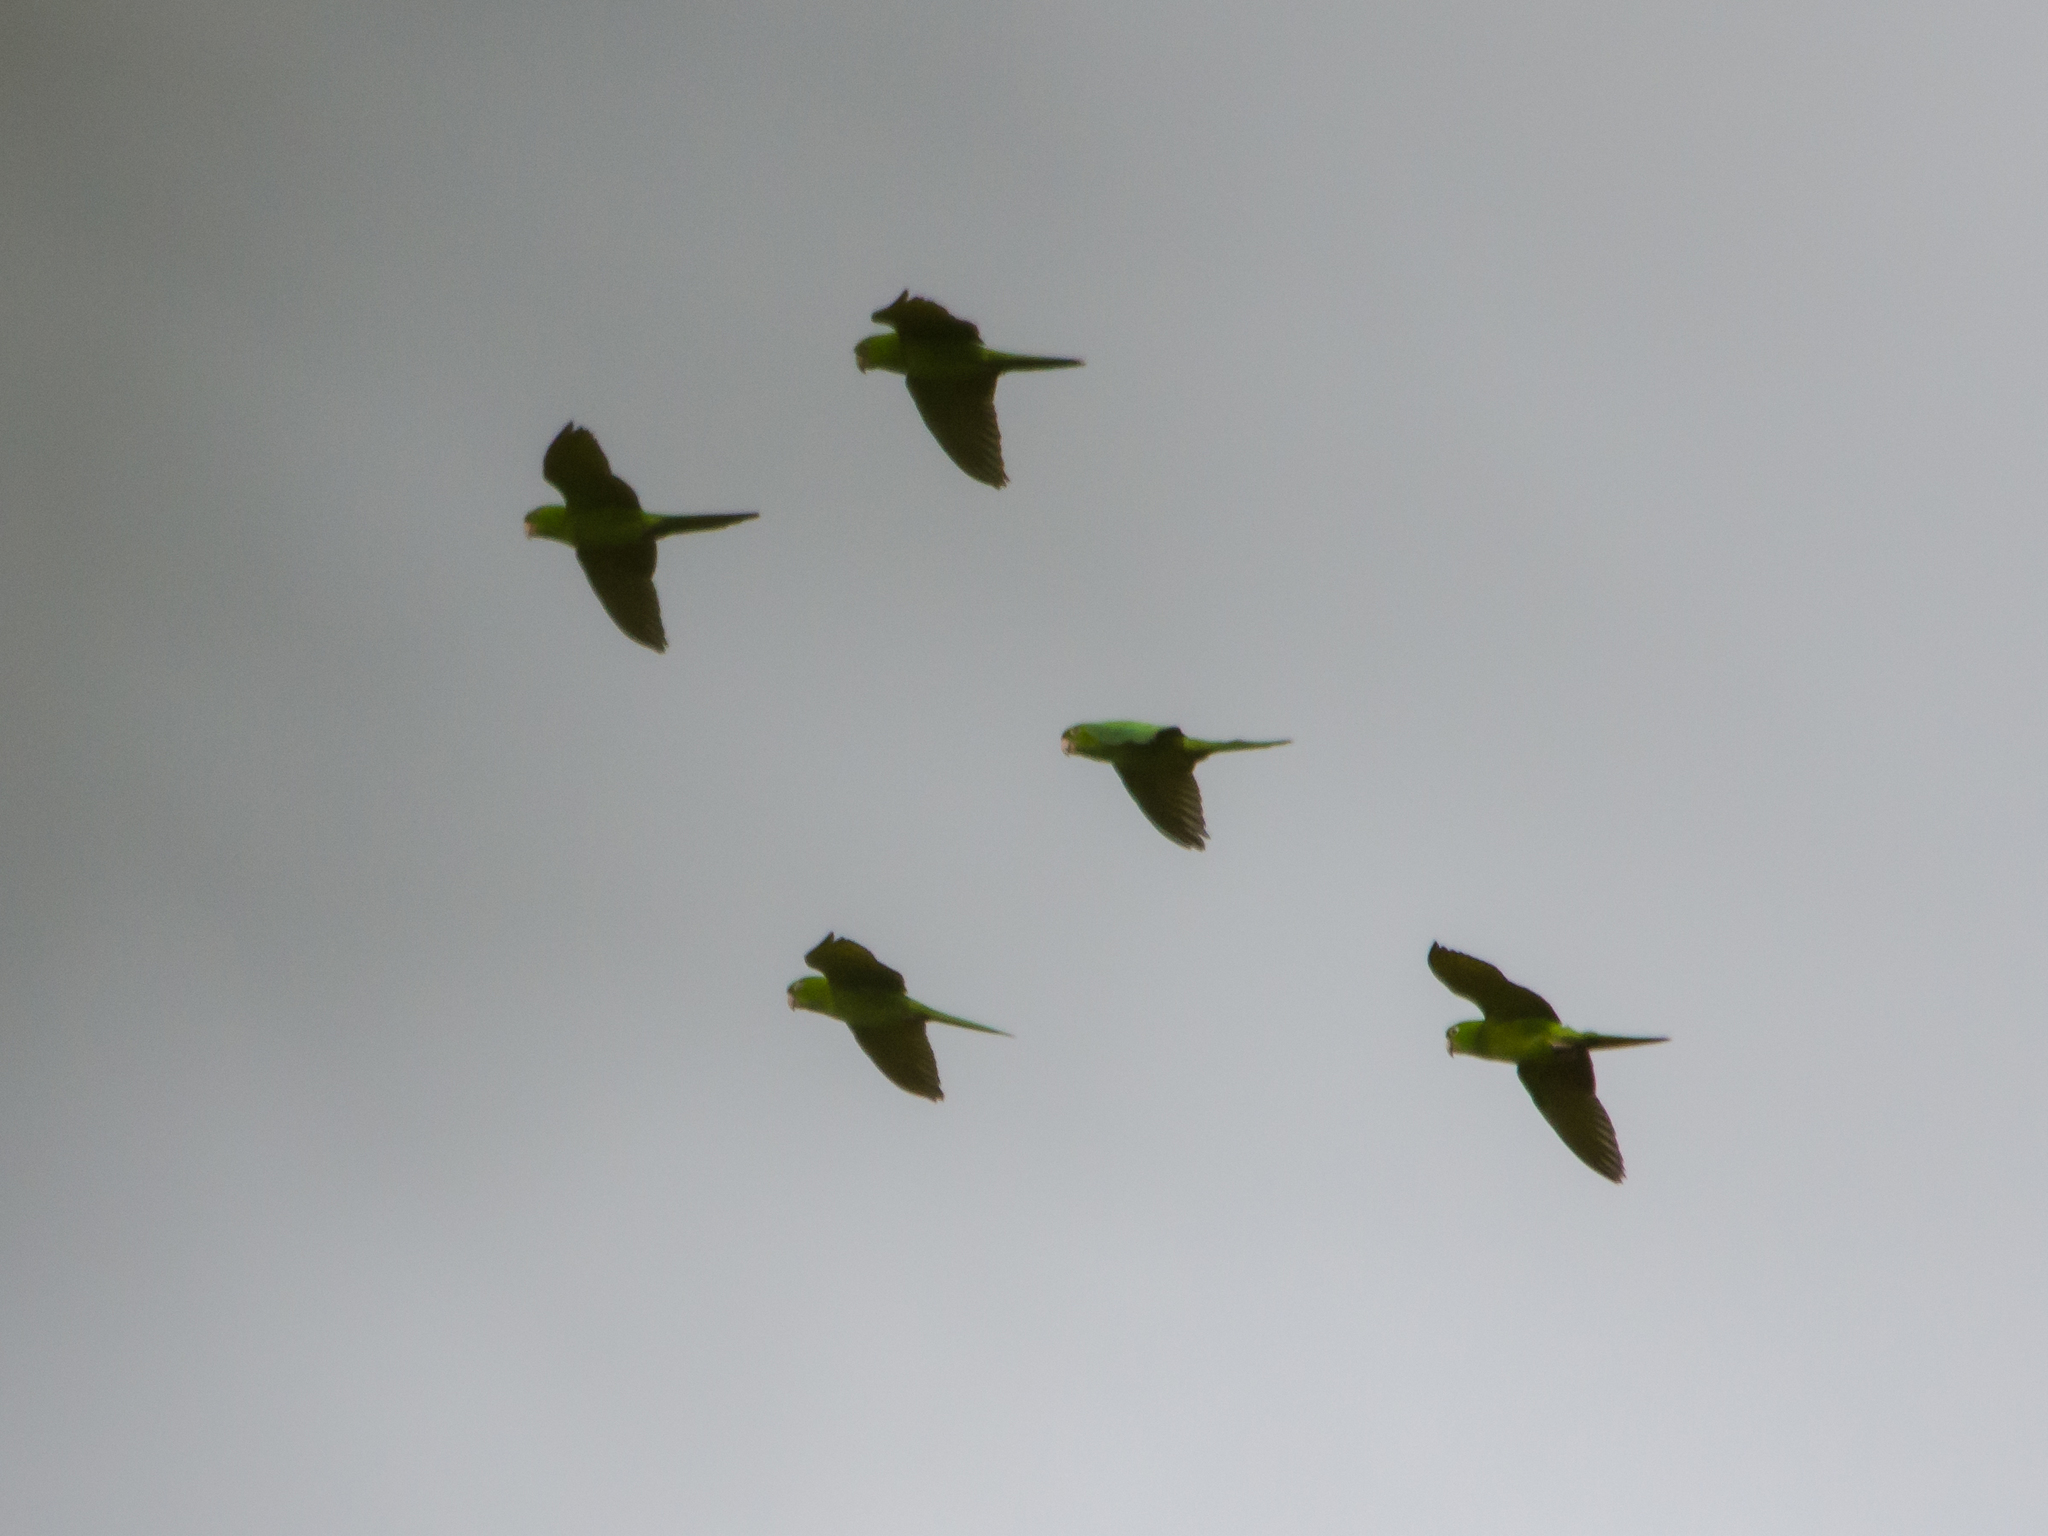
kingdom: Animalia
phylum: Chordata
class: Aves
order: Psittaciformes
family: Psittacidae
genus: Aratinga
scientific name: Aratinga strenua
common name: Pacific parakeet
